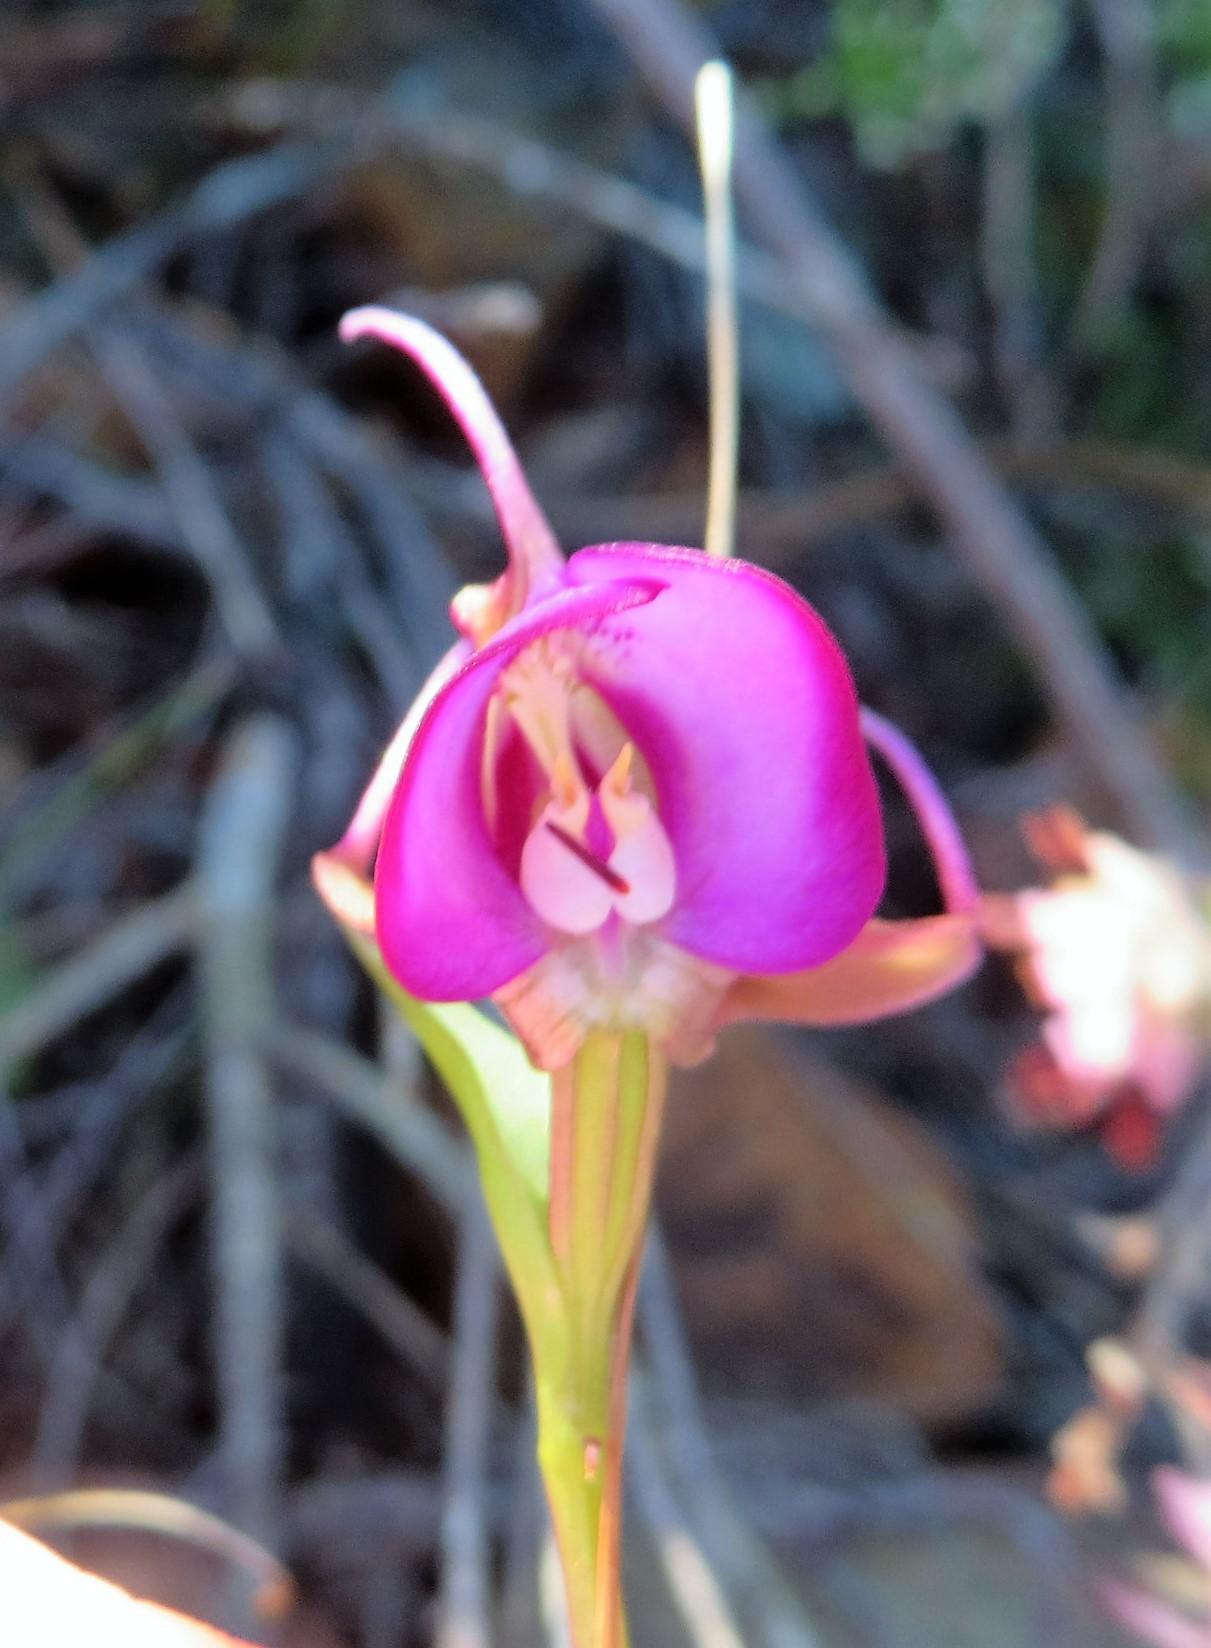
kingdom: Plantae
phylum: Tracheophyta
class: Liliopsida
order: Asparagales
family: Orchidaceae
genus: Disperis
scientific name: Disperis capensis
